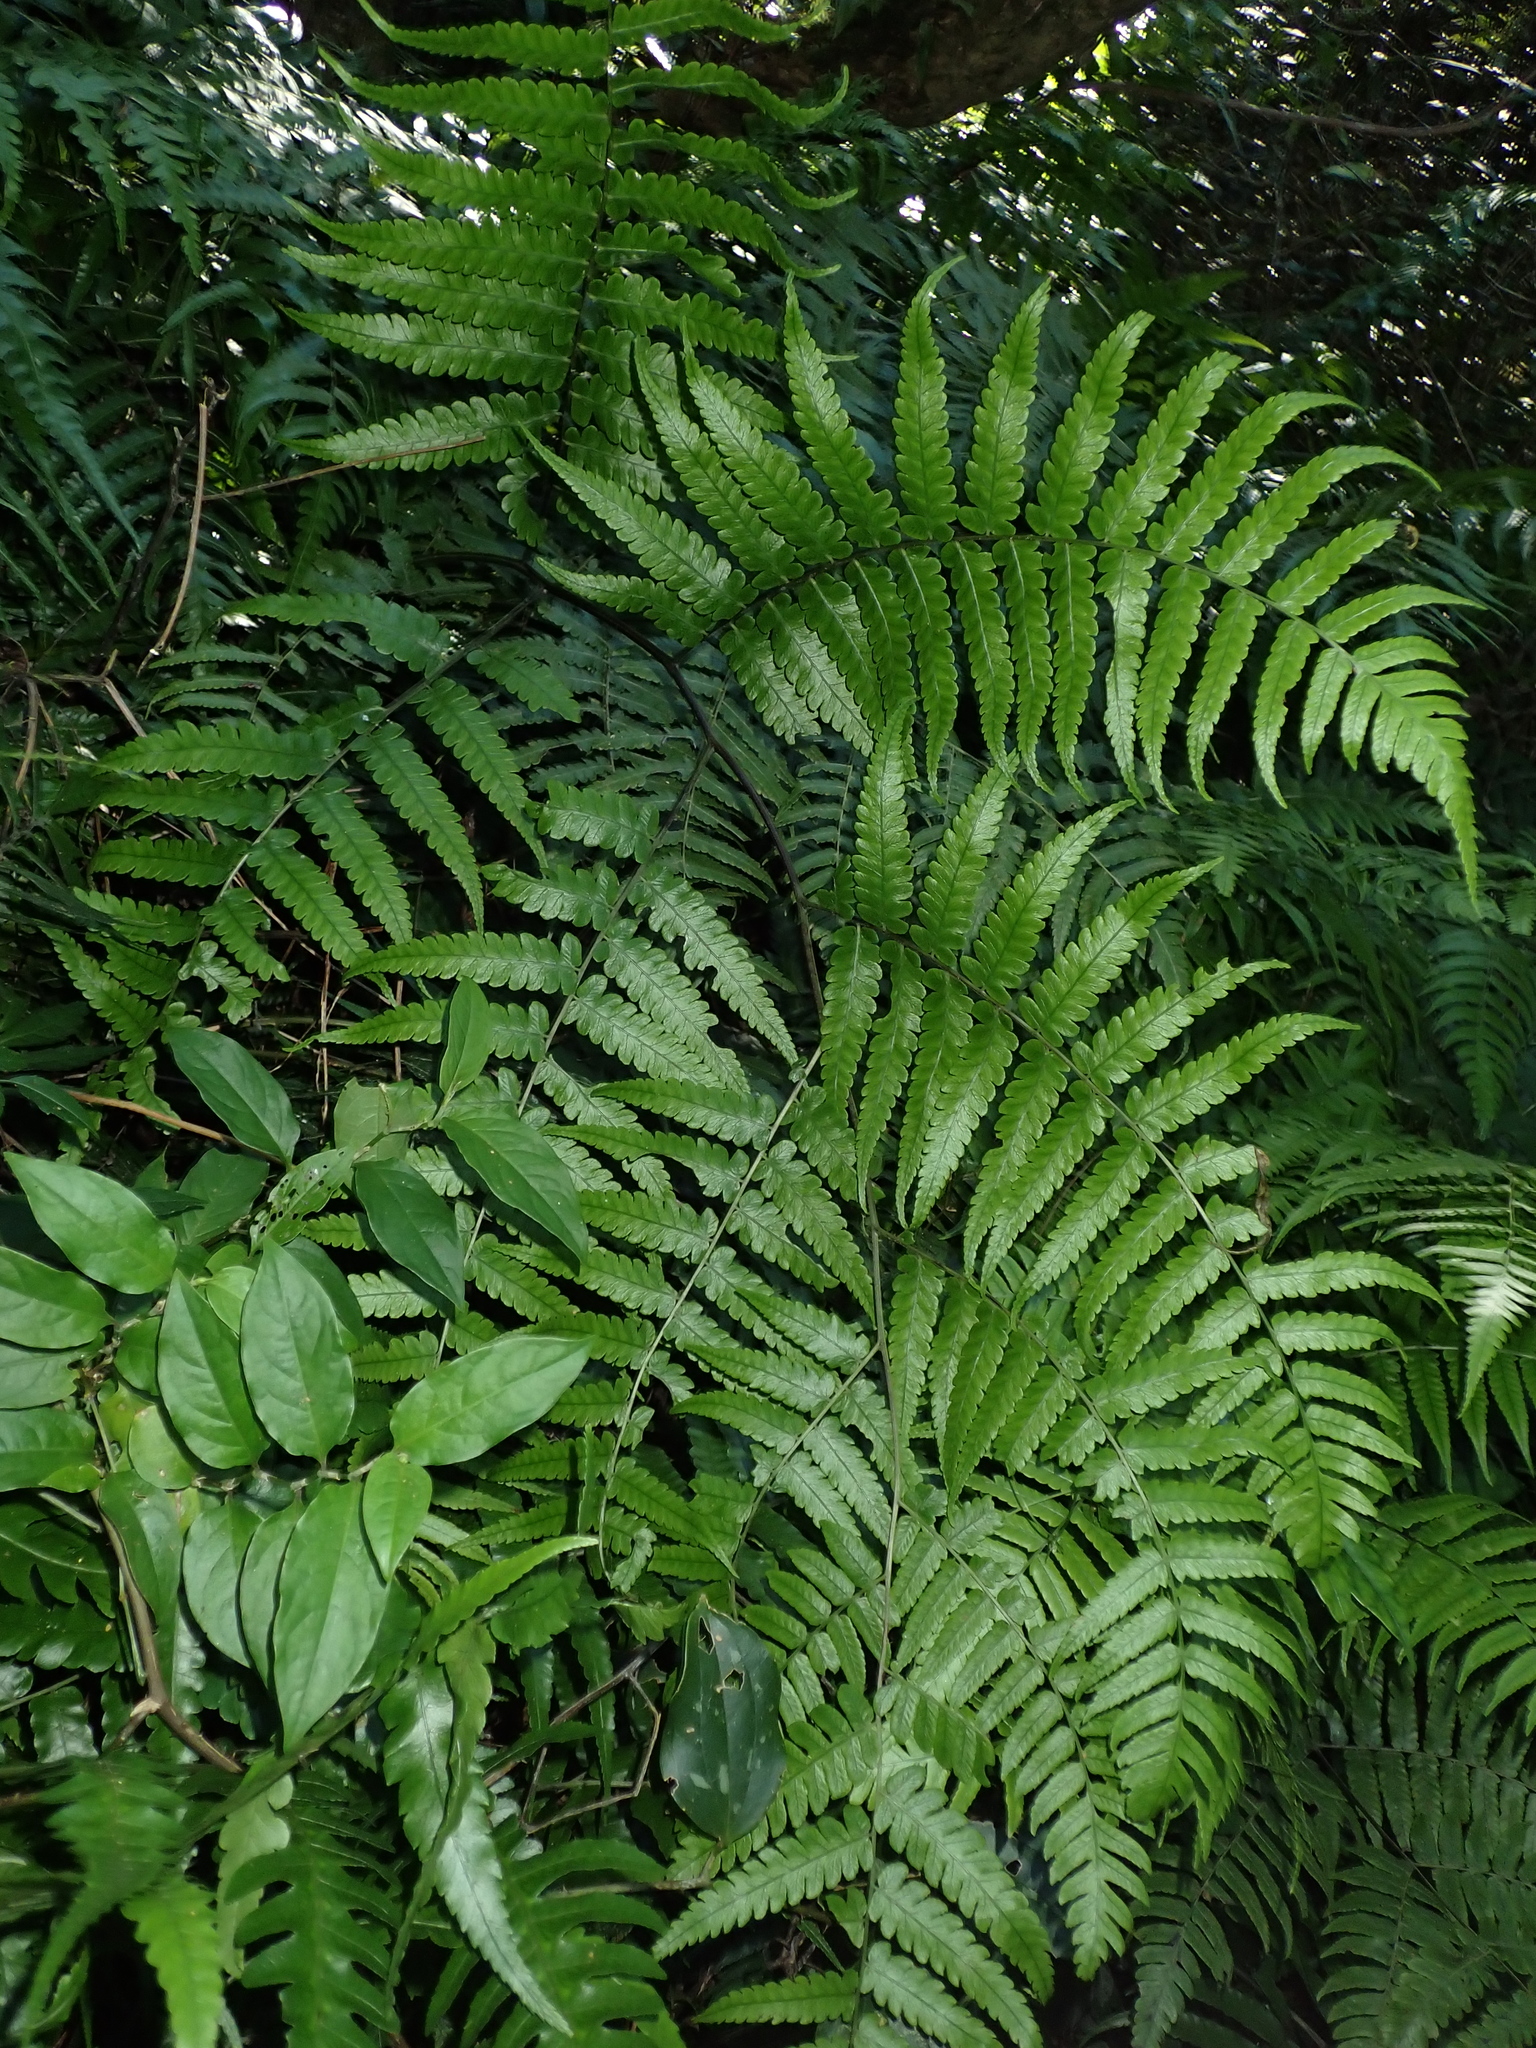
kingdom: Plantae
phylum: Tracheophyta
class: Polypodiopsida
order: Polypodiales
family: Athyriaceae
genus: Diplazium
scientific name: Diplazium virescens
